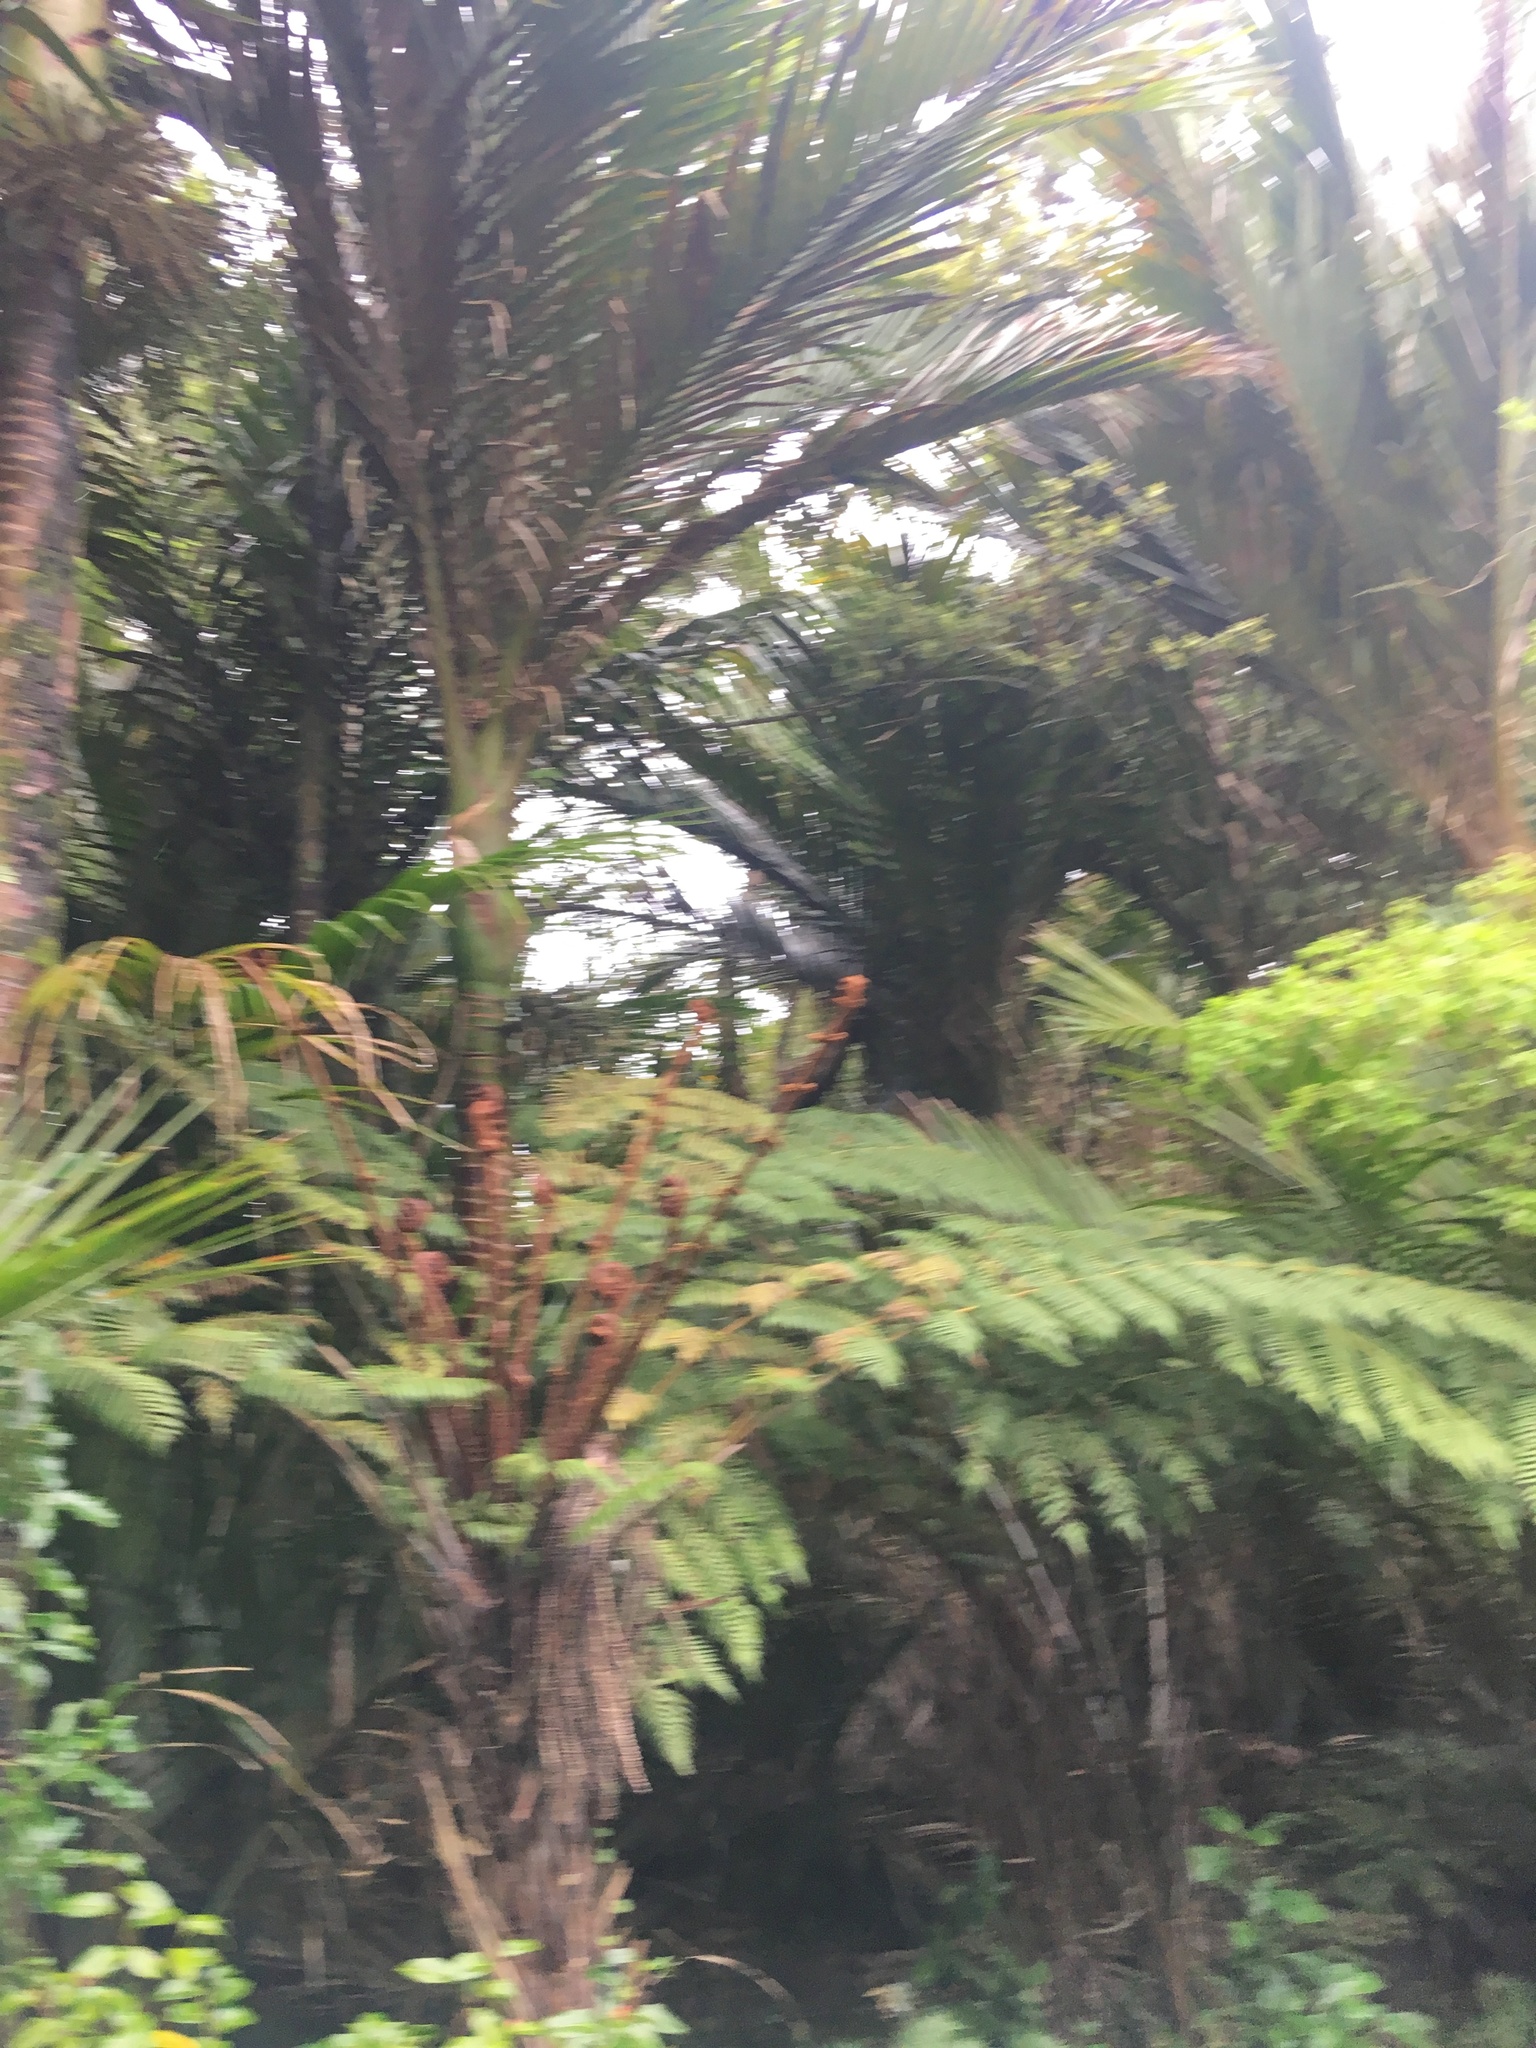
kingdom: Plantae
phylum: Tracheophyta
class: Liliopsida
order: Arecales
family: Arecaceae
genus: Rhopalostylis
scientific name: Rhopalostylis sapida
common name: Feather-duster palm
